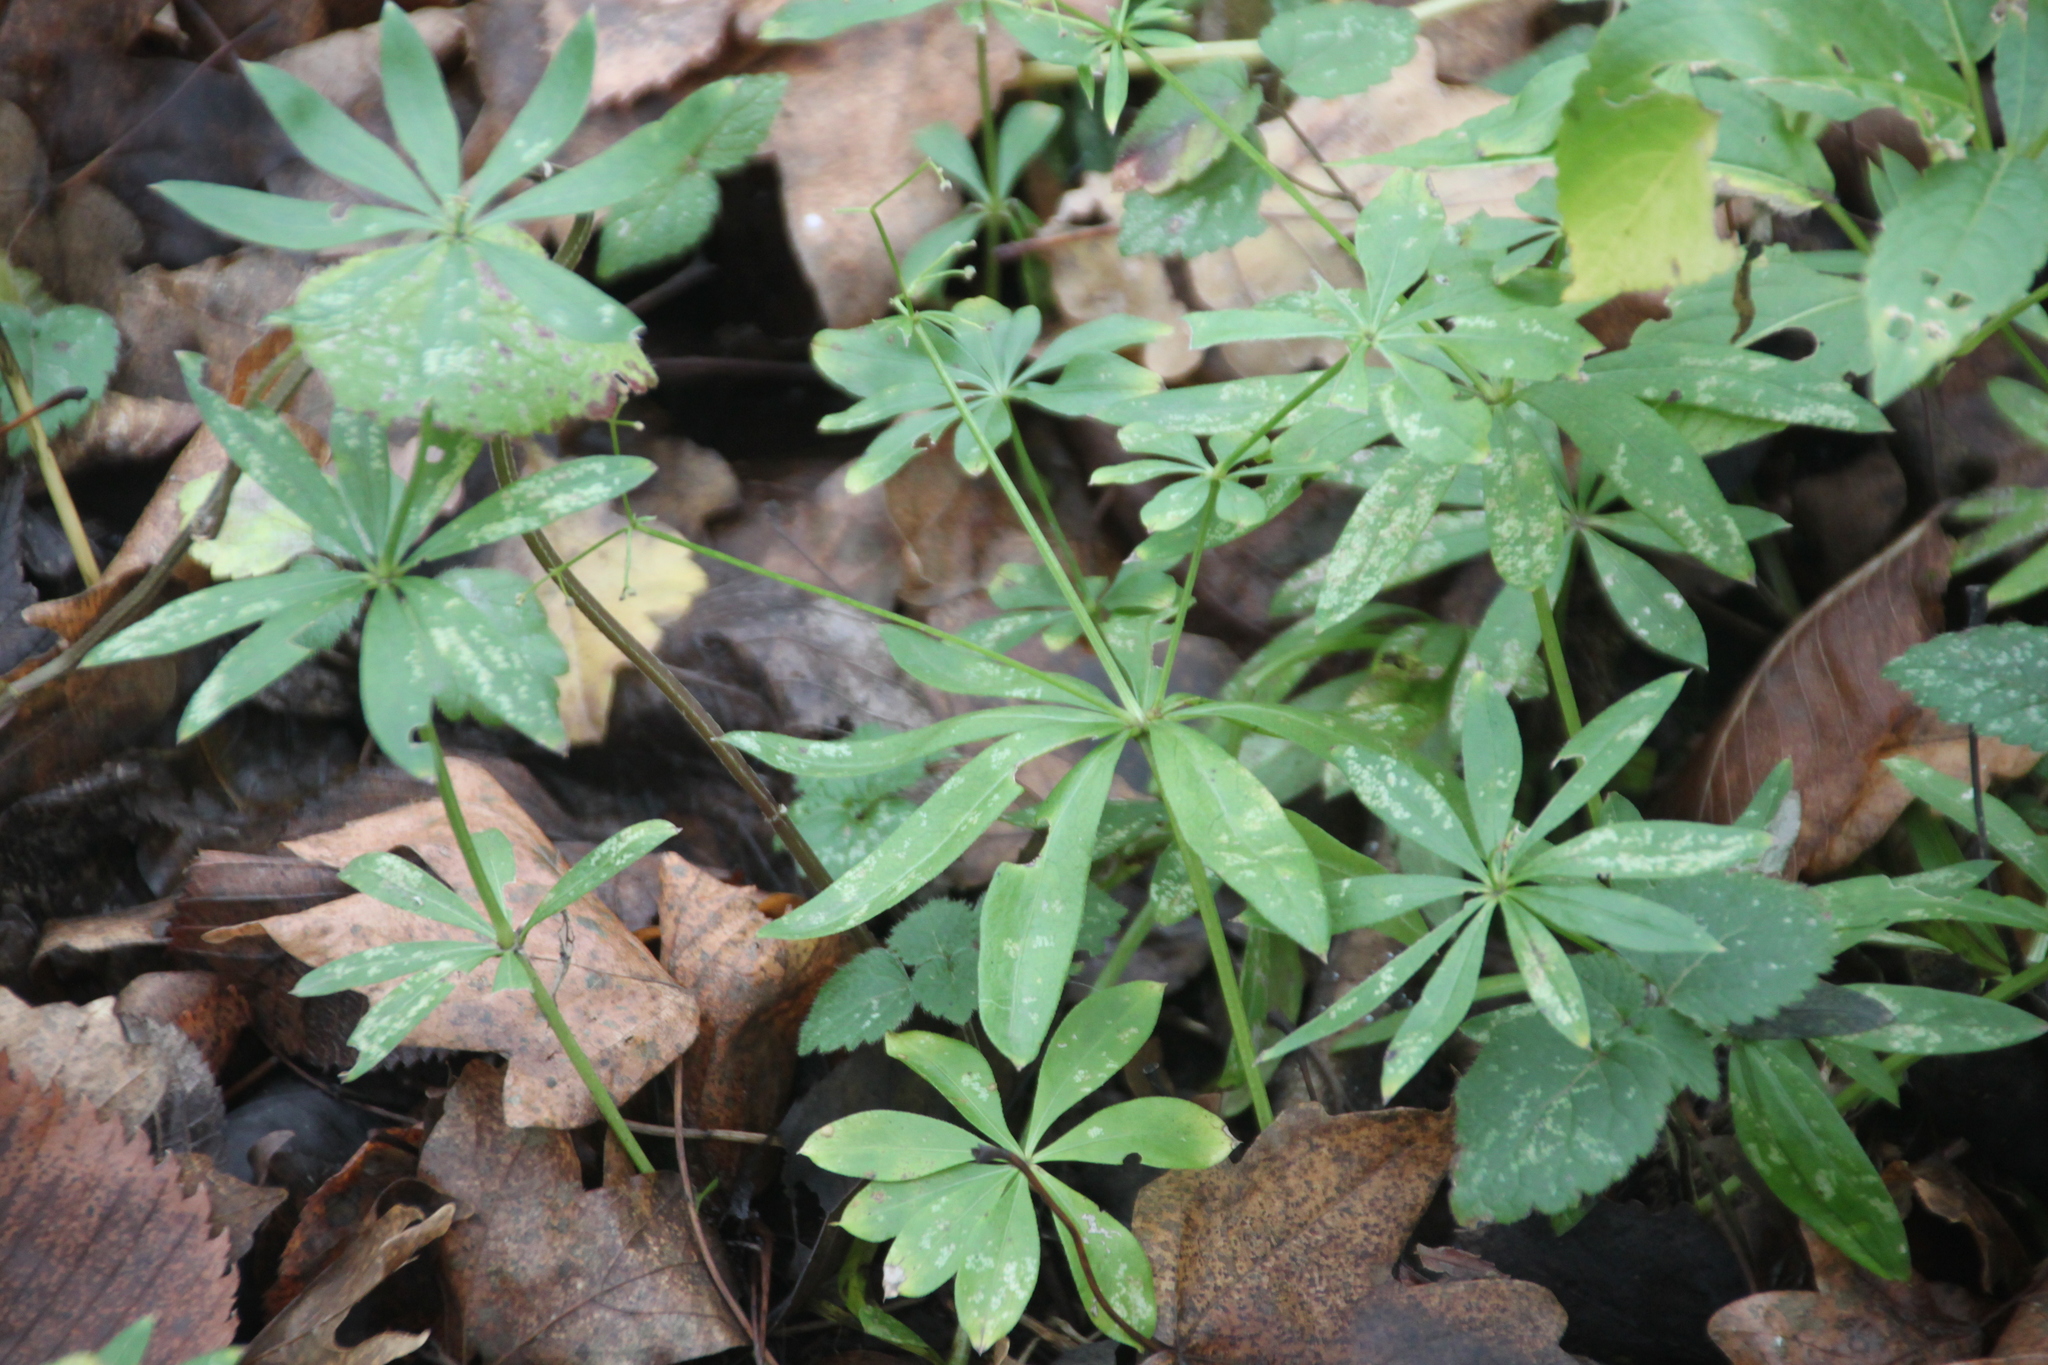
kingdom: Plantae
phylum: Tracheophyta
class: Magnoliopsida
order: Gentianales
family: Rubiaceae
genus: Galium
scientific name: Galium odoratum
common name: Sweet woodruff
